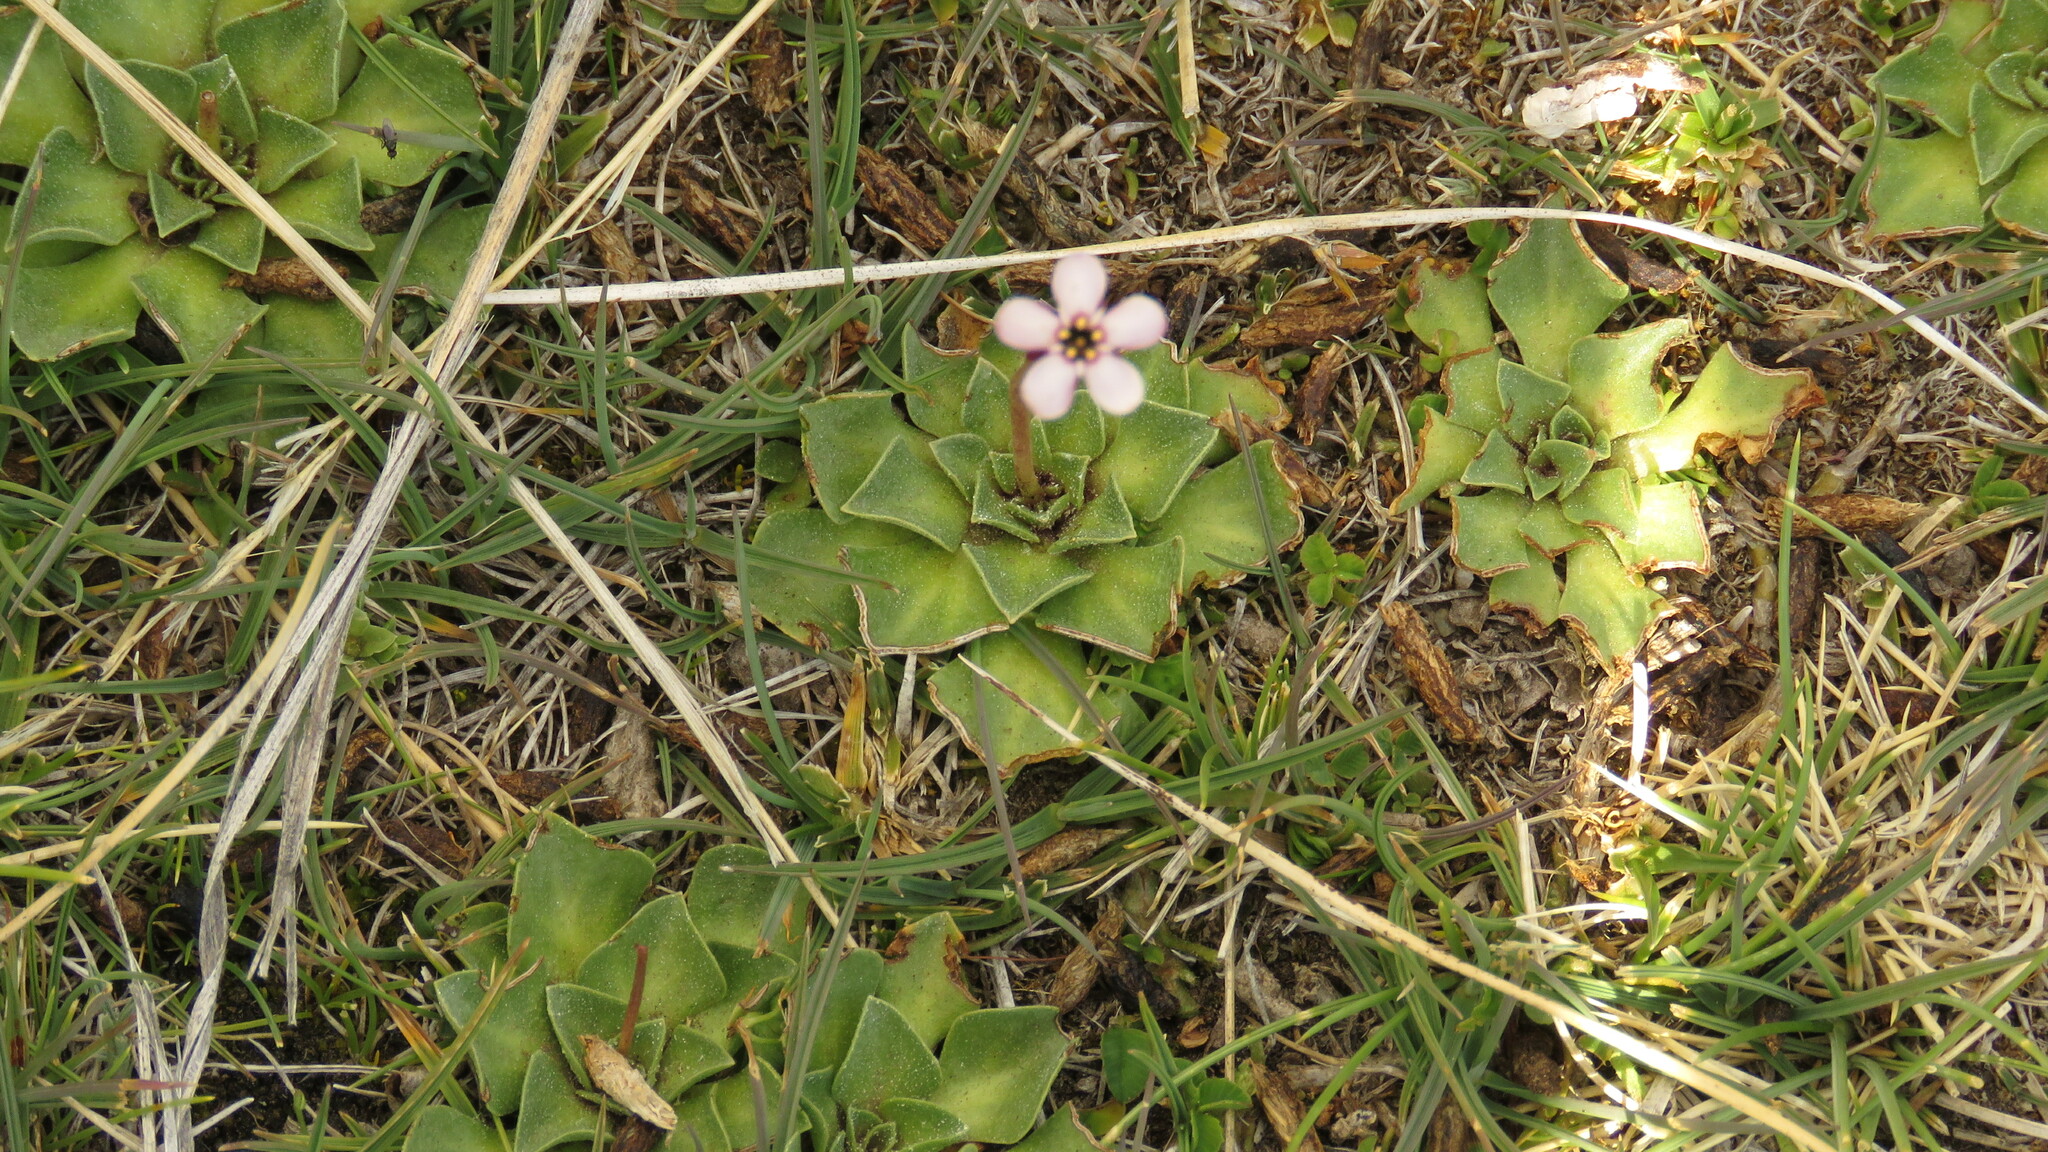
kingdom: Plantae
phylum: Tracheophyta
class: Magnoliopsida
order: Ericales
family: Primulaceae
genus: Samolus
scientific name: Samolus spathulatus
